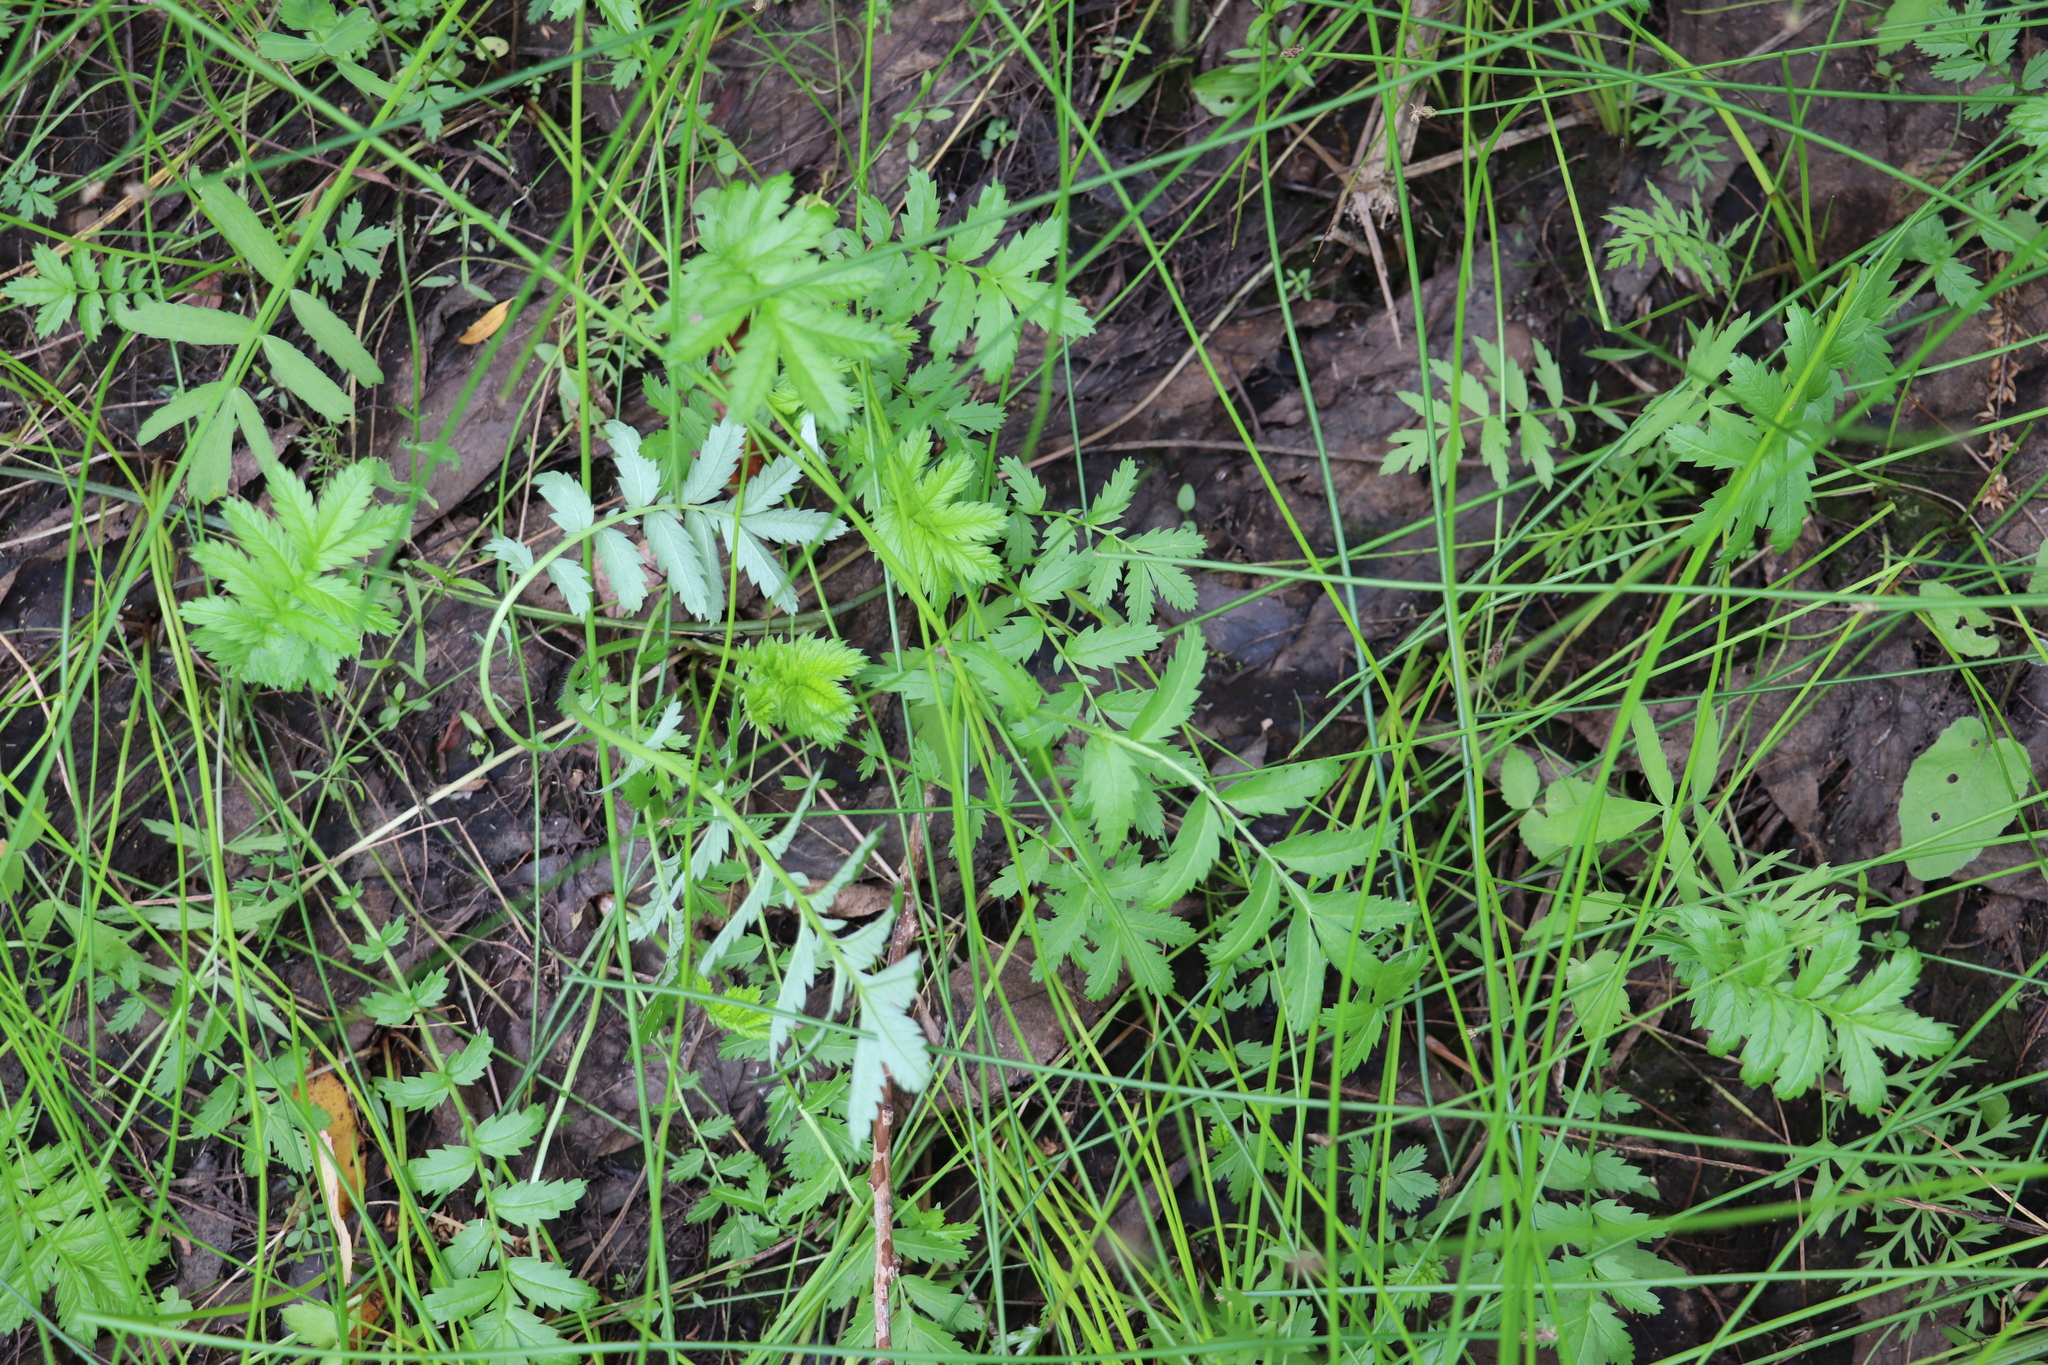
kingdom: Plantae
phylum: Tracheophyta
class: Magnoliopsida
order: Rosales
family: Rosaceae
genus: Argentina
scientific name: Argentina anserina
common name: Common silverweed
